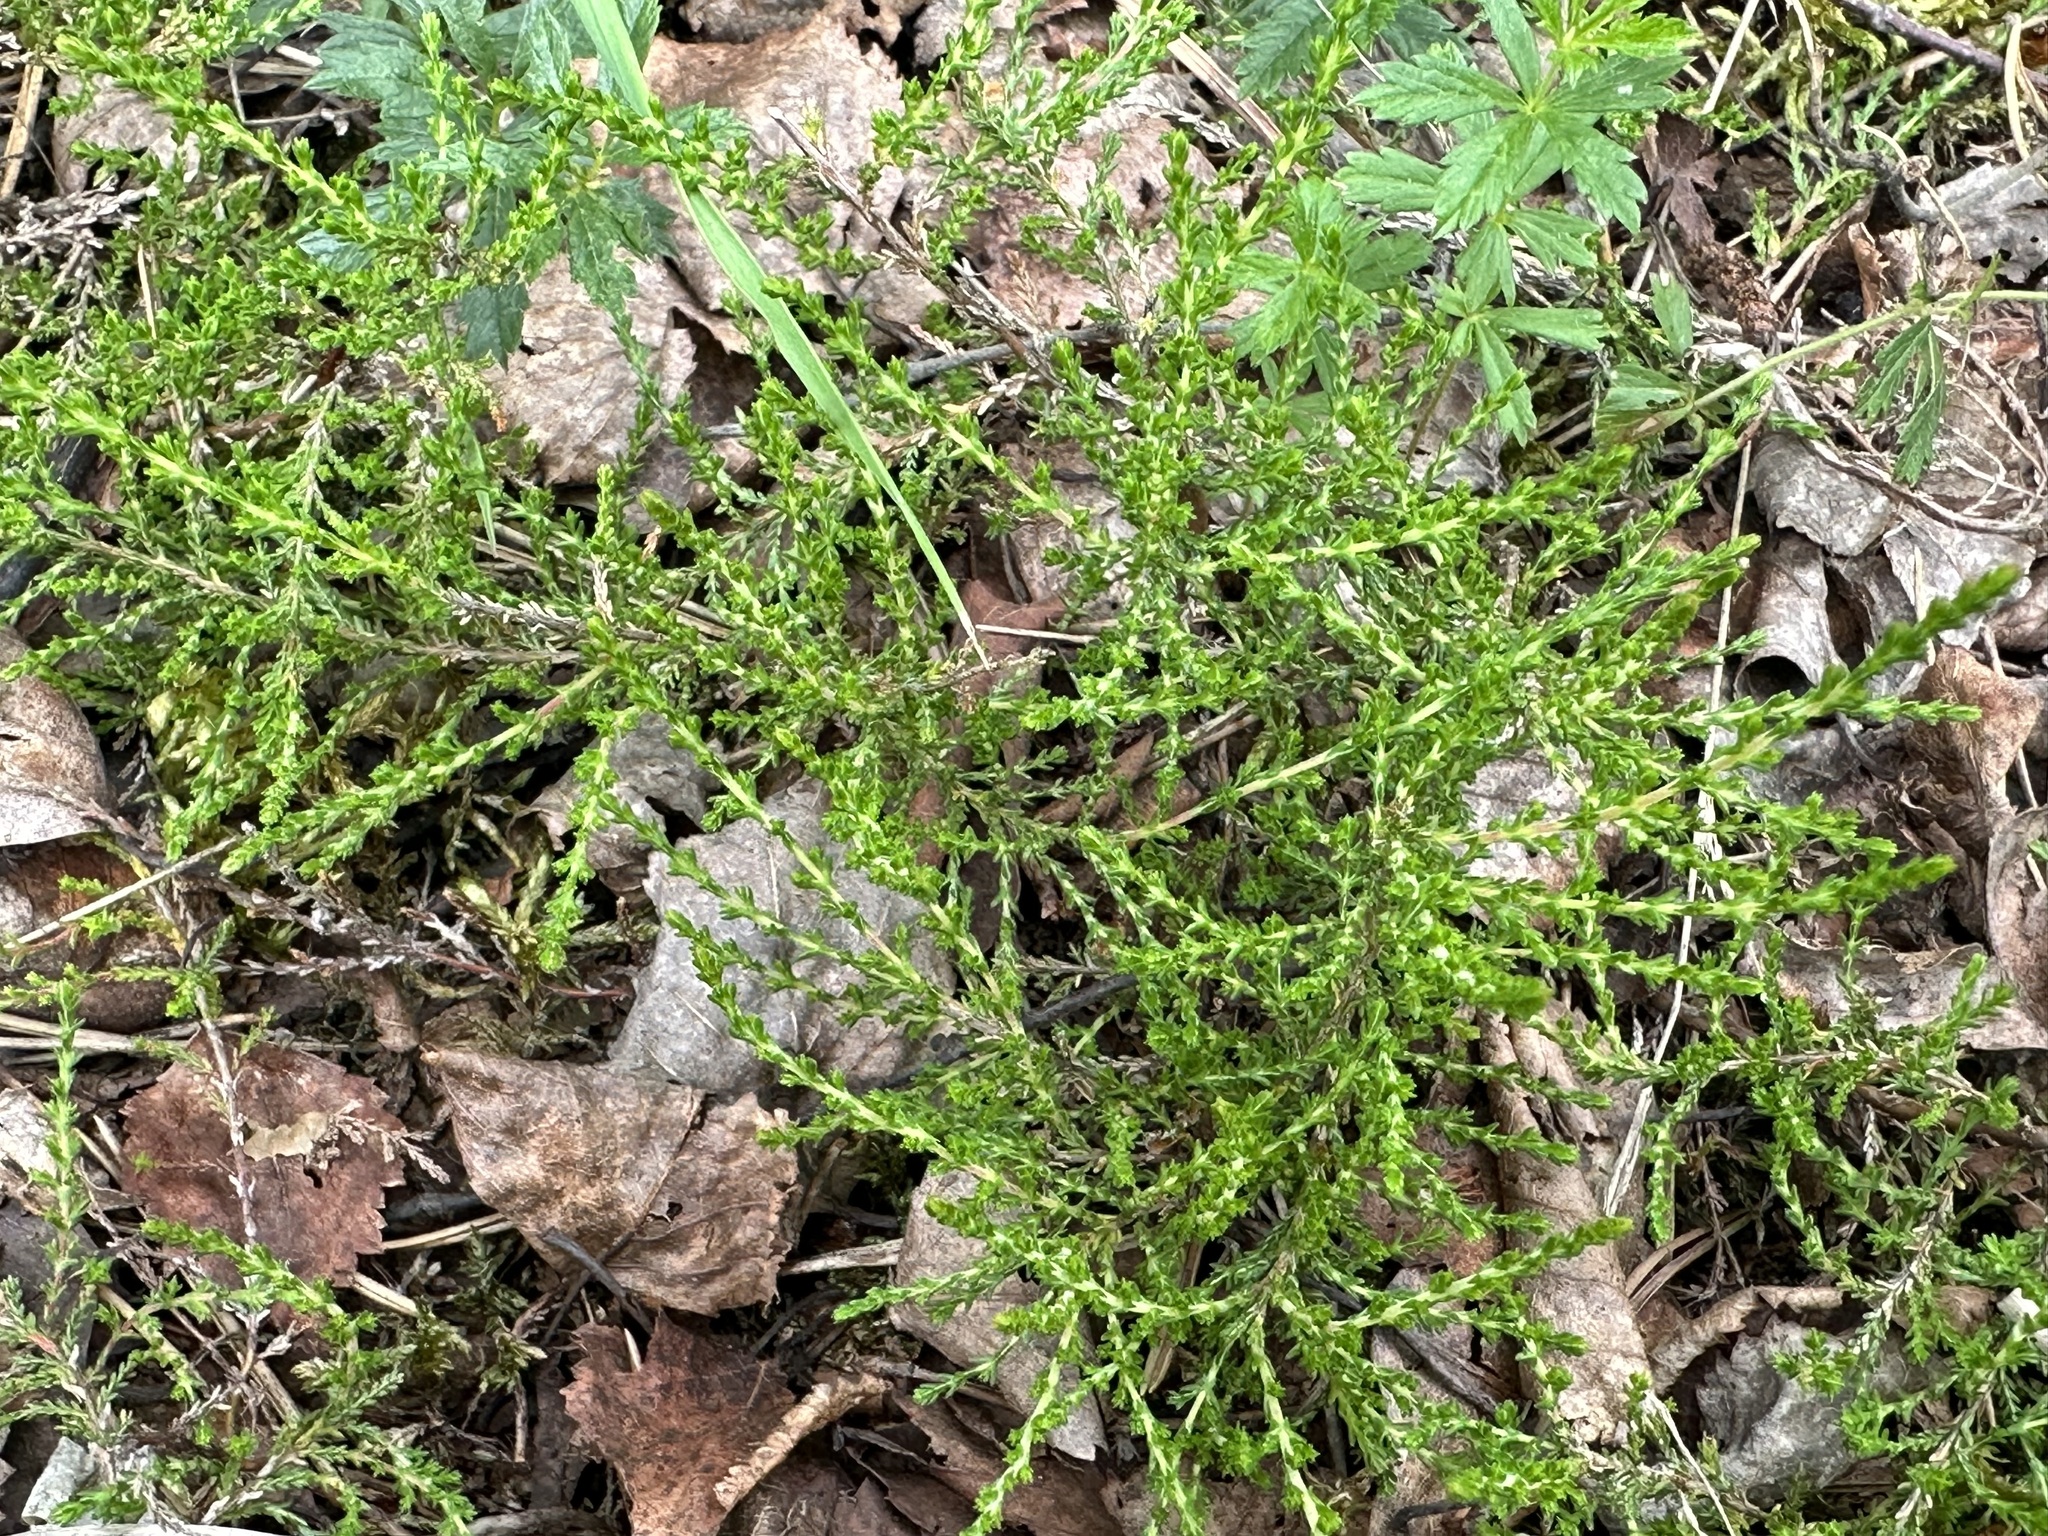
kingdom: Plantae
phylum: Tracheophyta
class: Magnoliopsida
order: Ericales
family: Ericaceae
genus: Calluna
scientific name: Calluna vulgaris
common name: Heather
